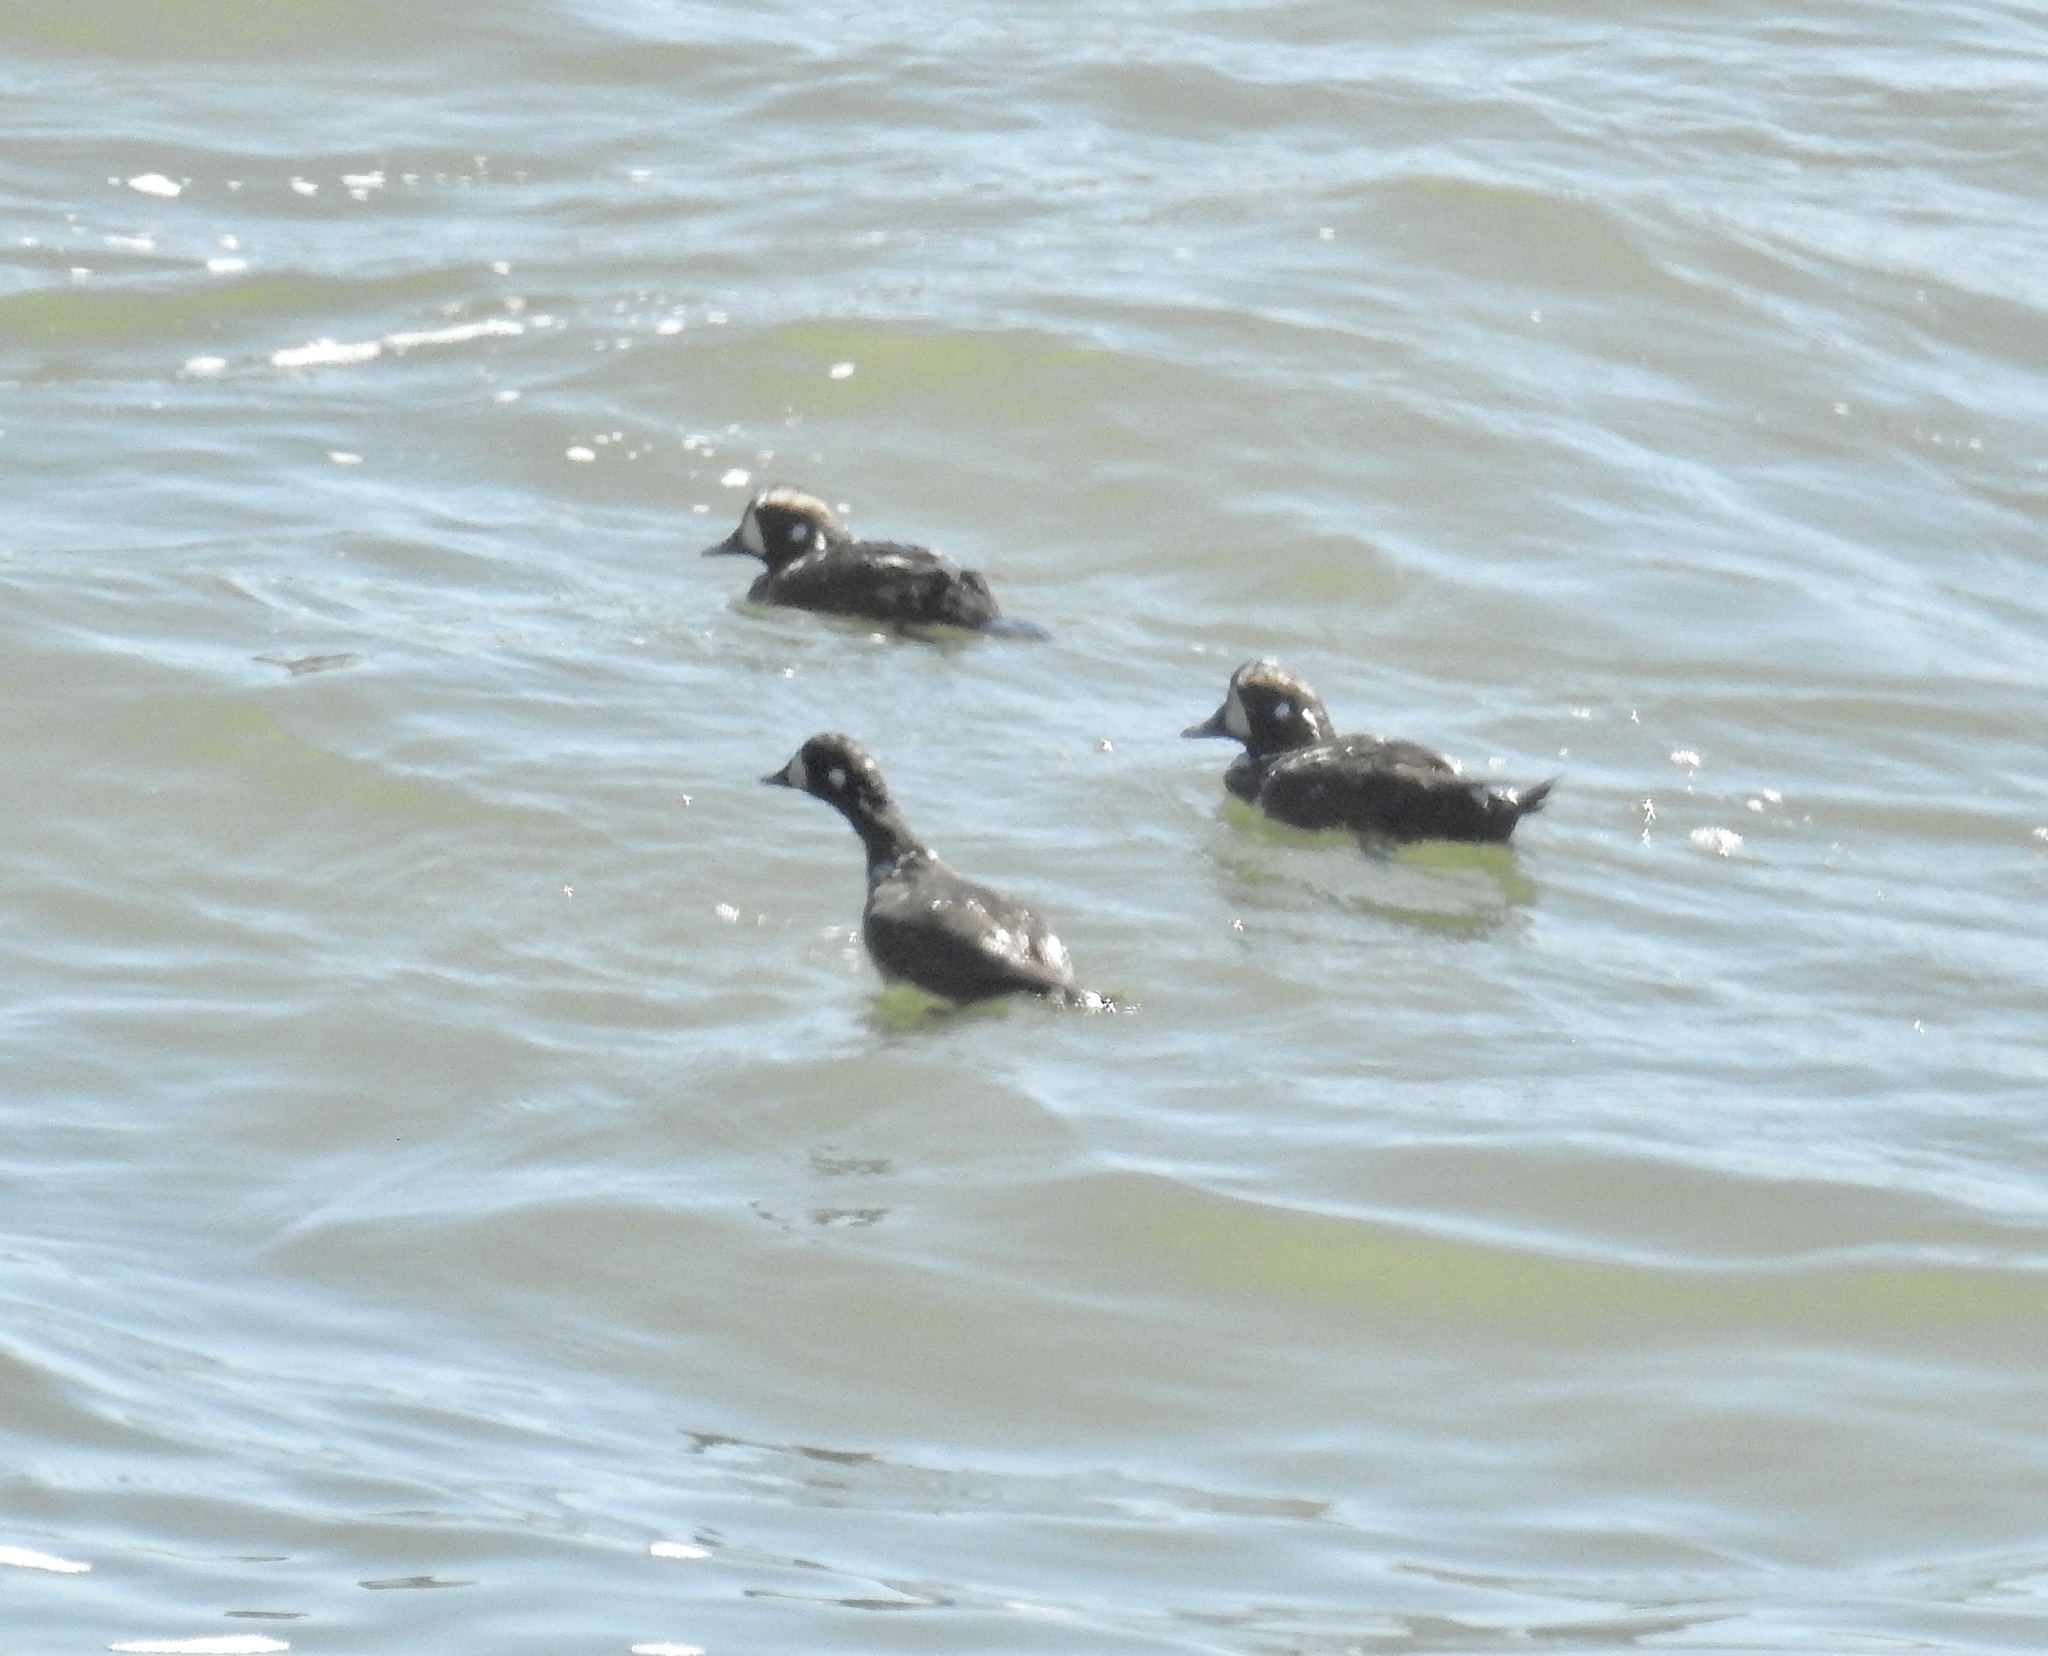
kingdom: Animalia
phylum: Chordata
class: Aves
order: Anseriformes
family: Anatidae
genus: Histrionicus
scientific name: Histrionicus histrionicus
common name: Harlequin duck
